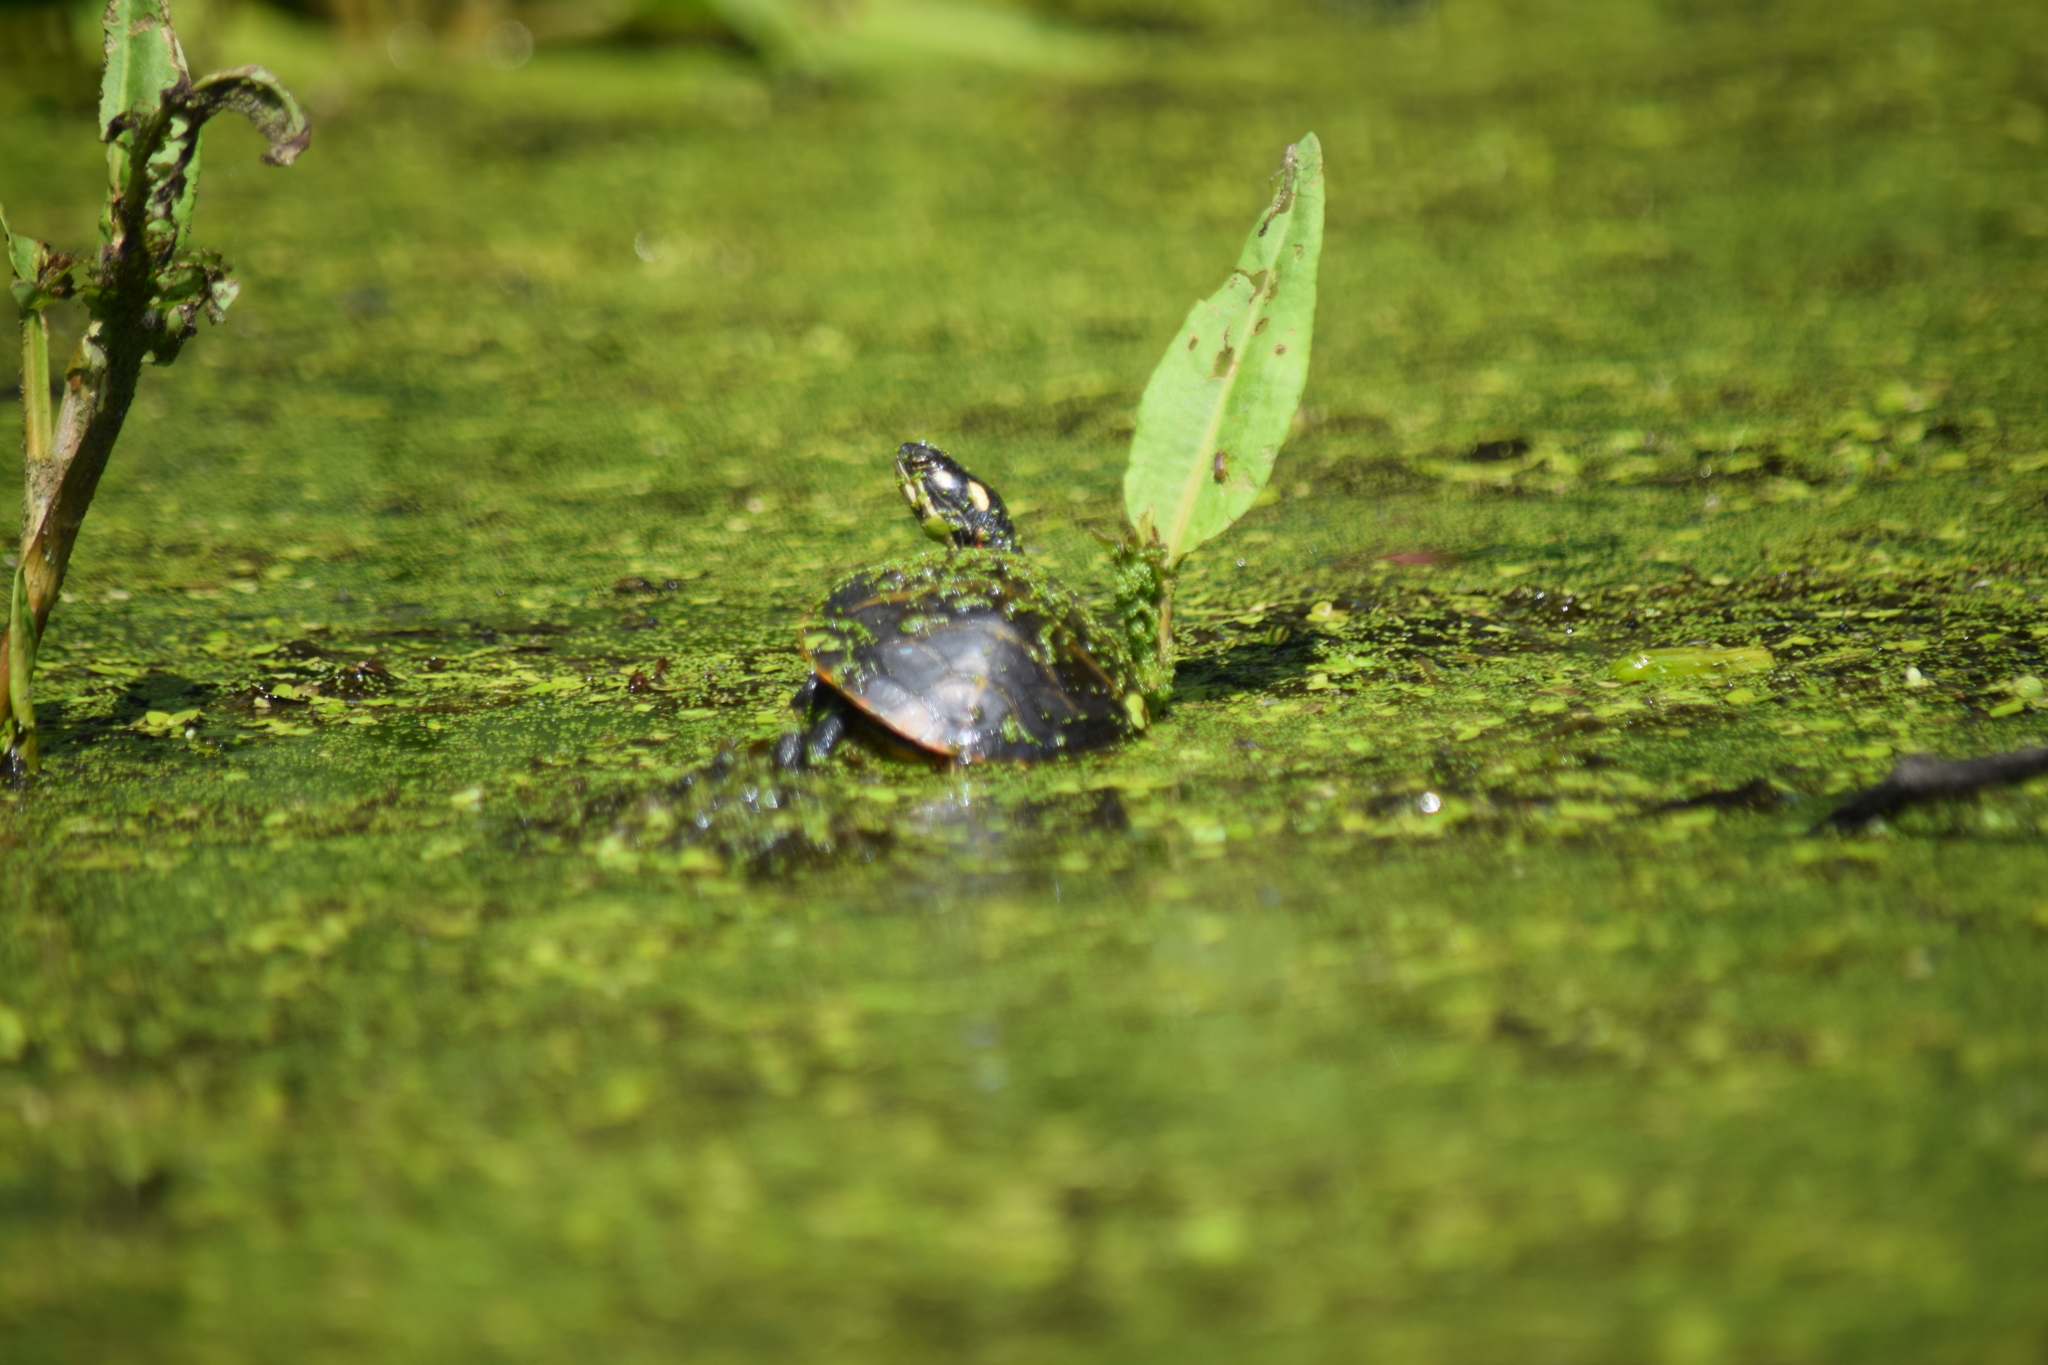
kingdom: Animalia
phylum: Chordata
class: Testudines
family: Emydidae
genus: Chrysemys
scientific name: Chrysemys picta
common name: Painted turtle
